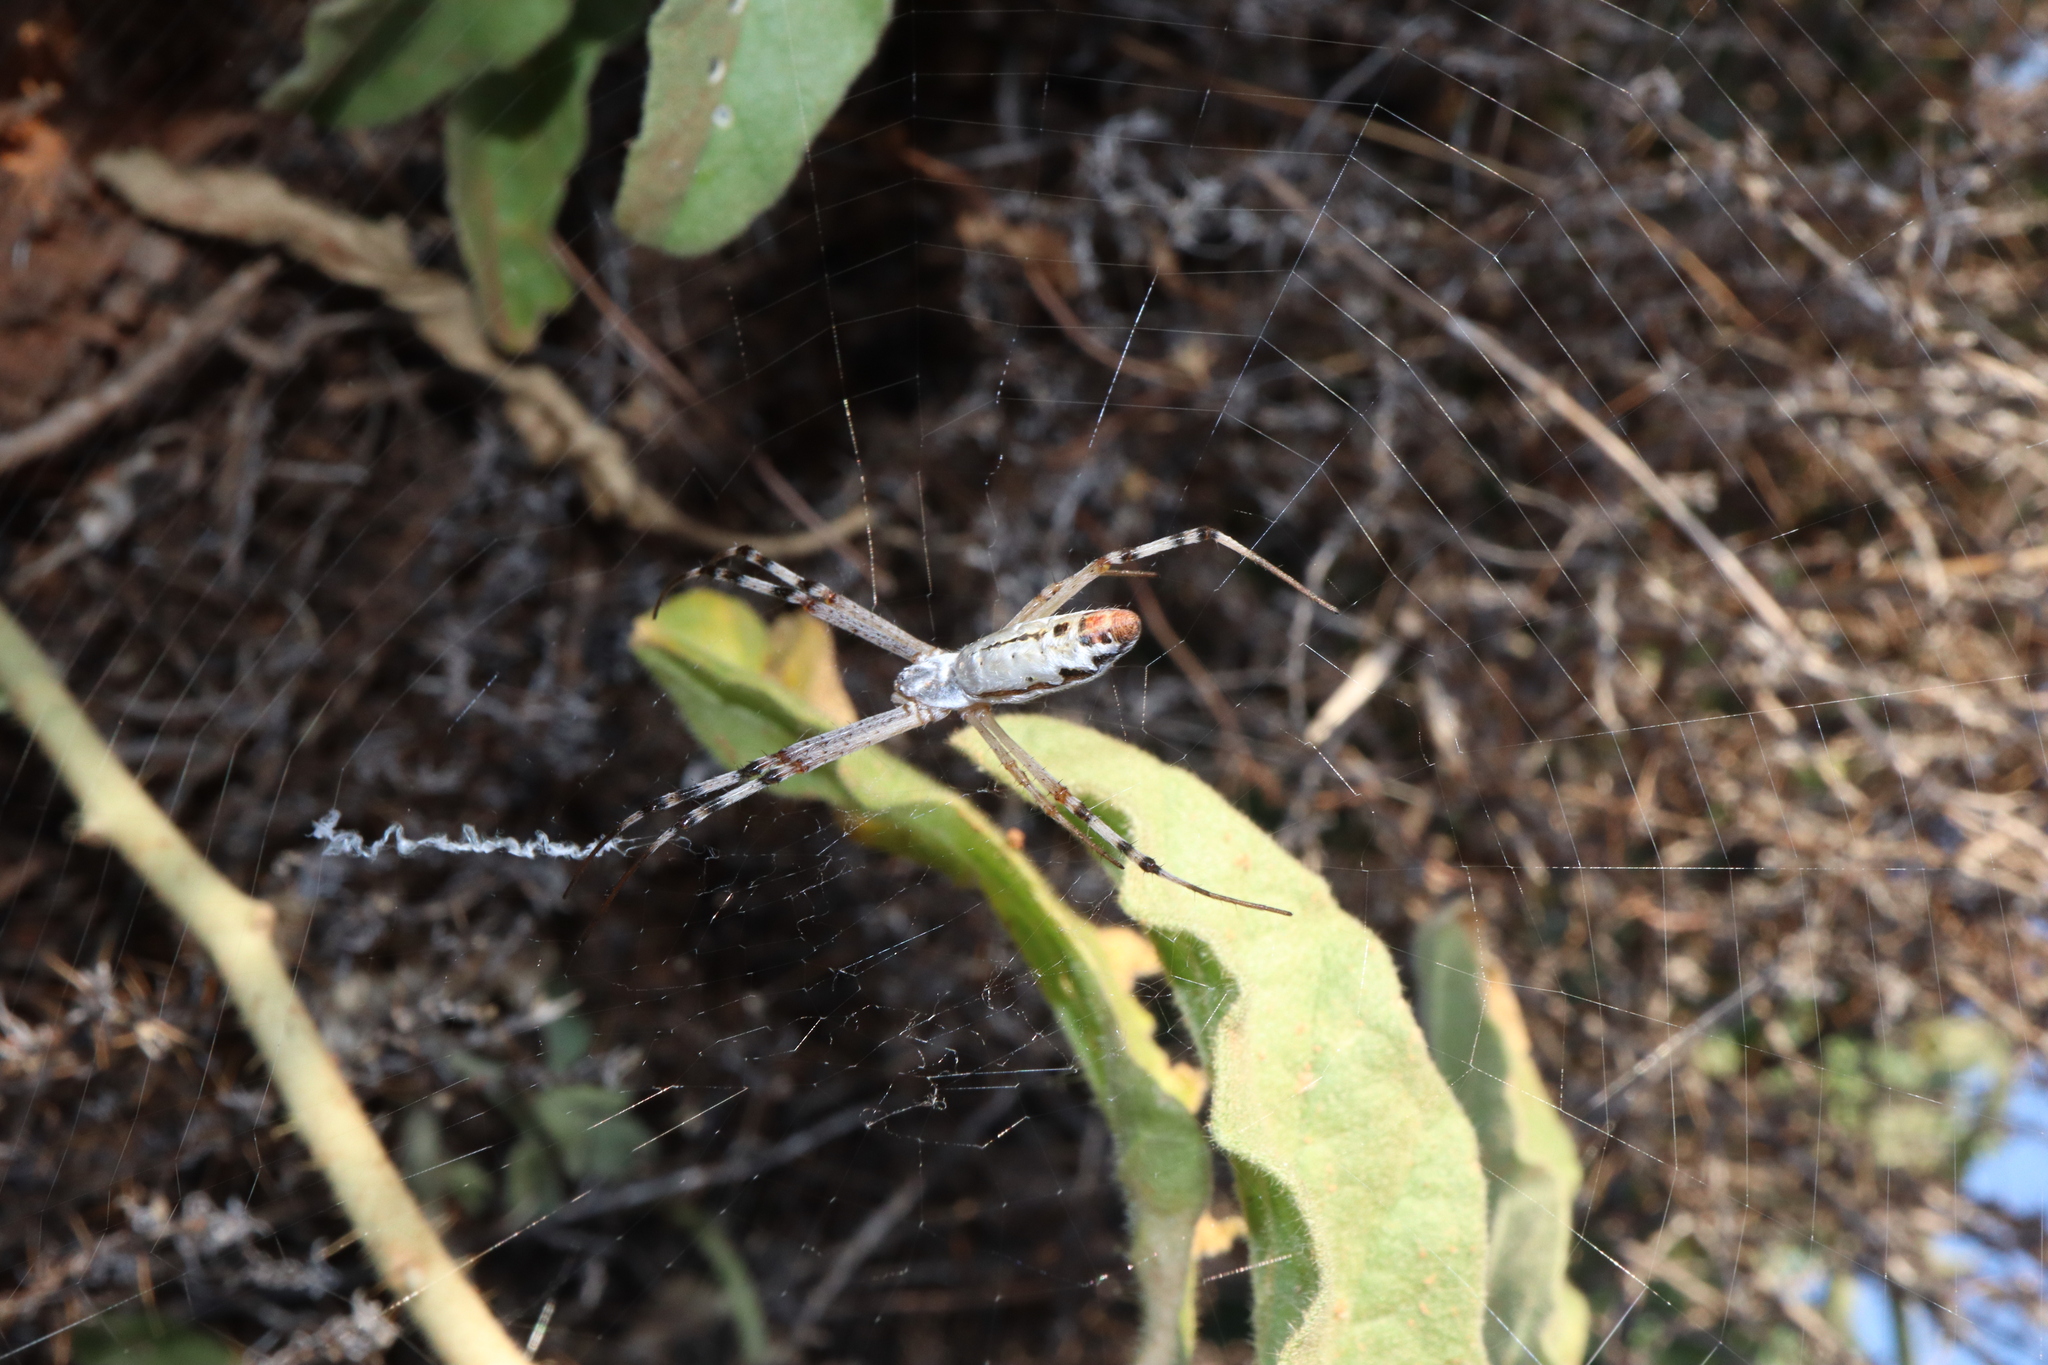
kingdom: Animalia
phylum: Arthropoda
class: Arachnida
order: Araneae
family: Araneidae
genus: Argiope
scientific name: Argiope protensa
